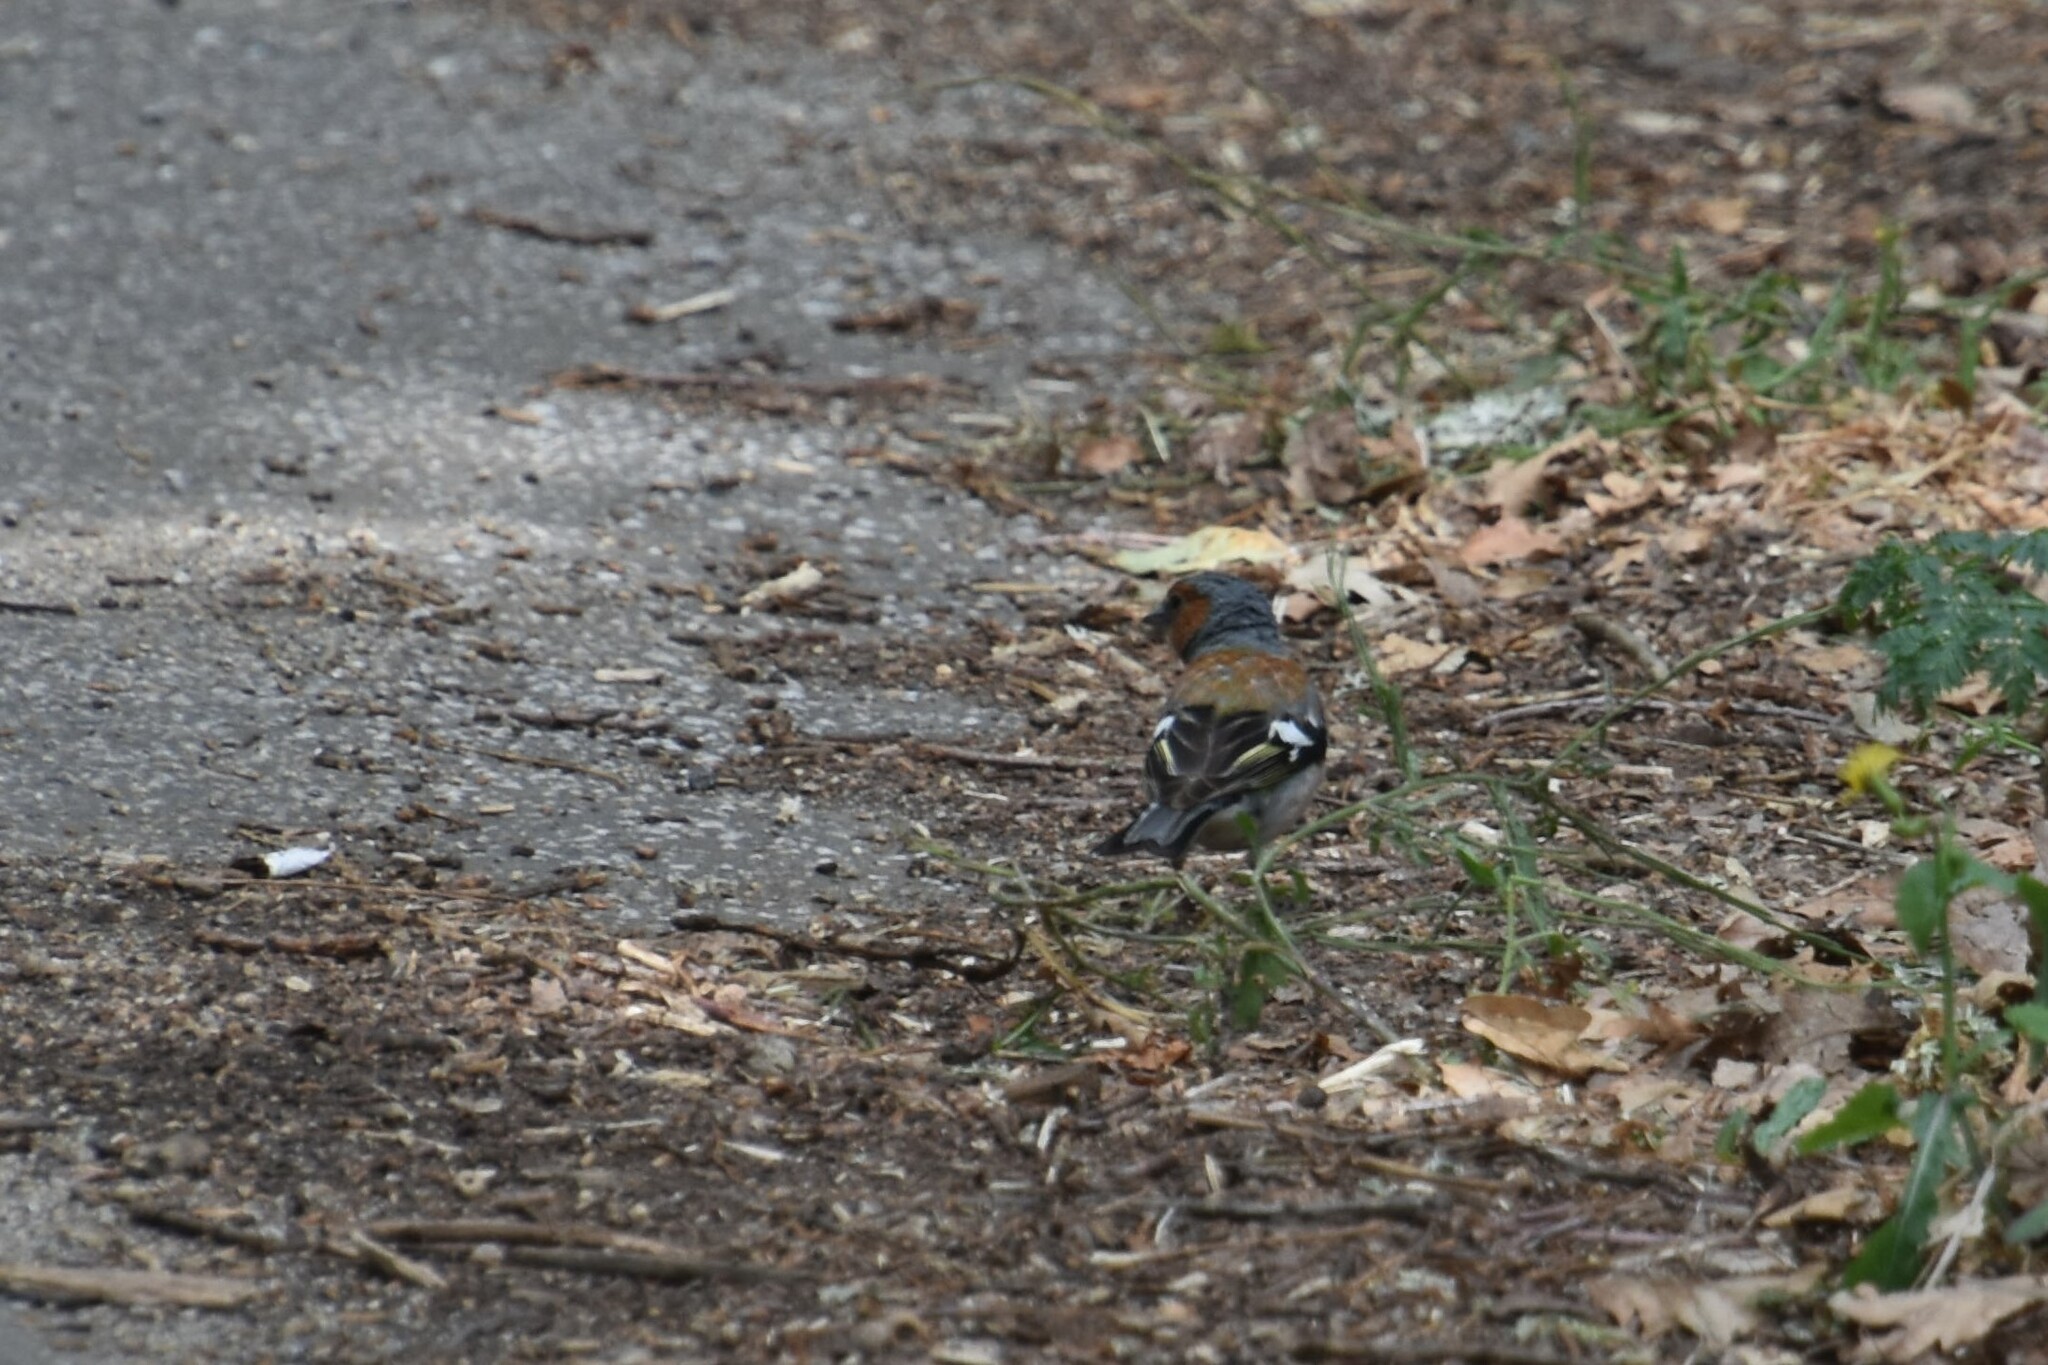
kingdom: Animalia
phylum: Chordata
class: Aves
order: Passeriformes
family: Fringillidae
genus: Fringilla
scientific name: Fringilla coelebs
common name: Common chaffinch
